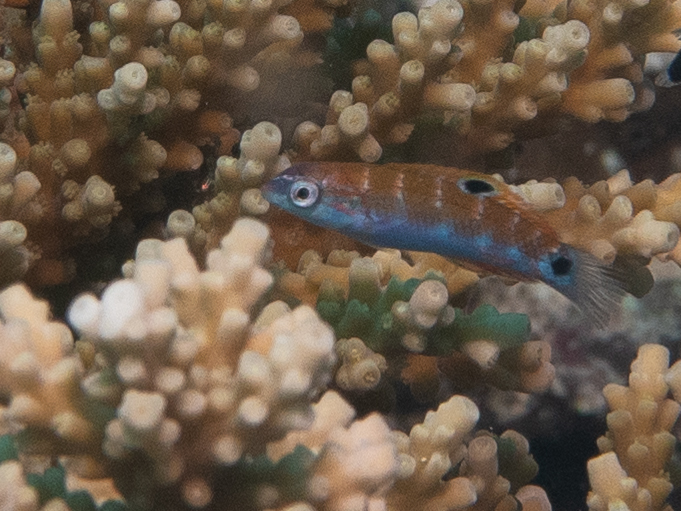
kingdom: Animalia
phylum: Chordata
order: Perciformes
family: Labridae
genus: Thalassoma
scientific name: Thalassoma lunare
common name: Blue wrasse
